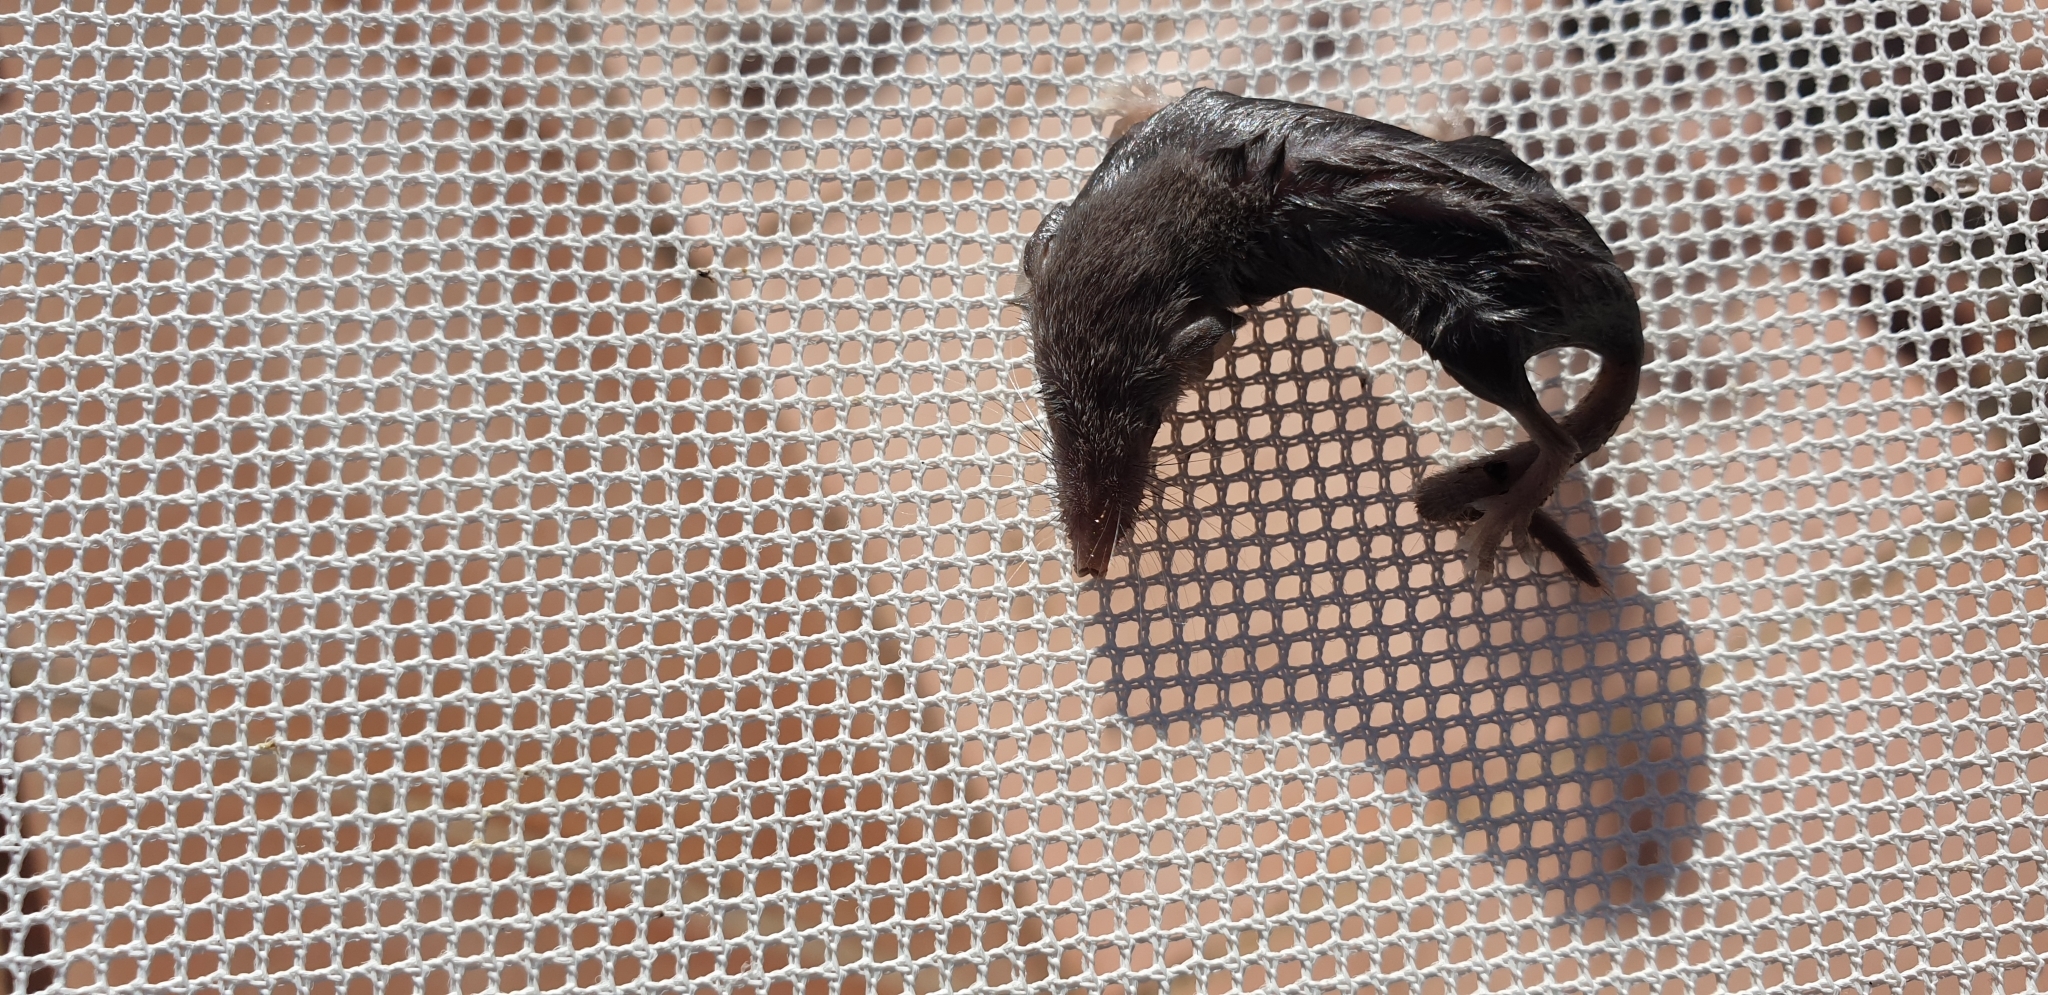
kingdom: Animalia
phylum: Chordata
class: Mammalia
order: Soricomorpha
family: Soricidae
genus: Suncus
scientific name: Suncus etruscus
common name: Etruscan shrew
